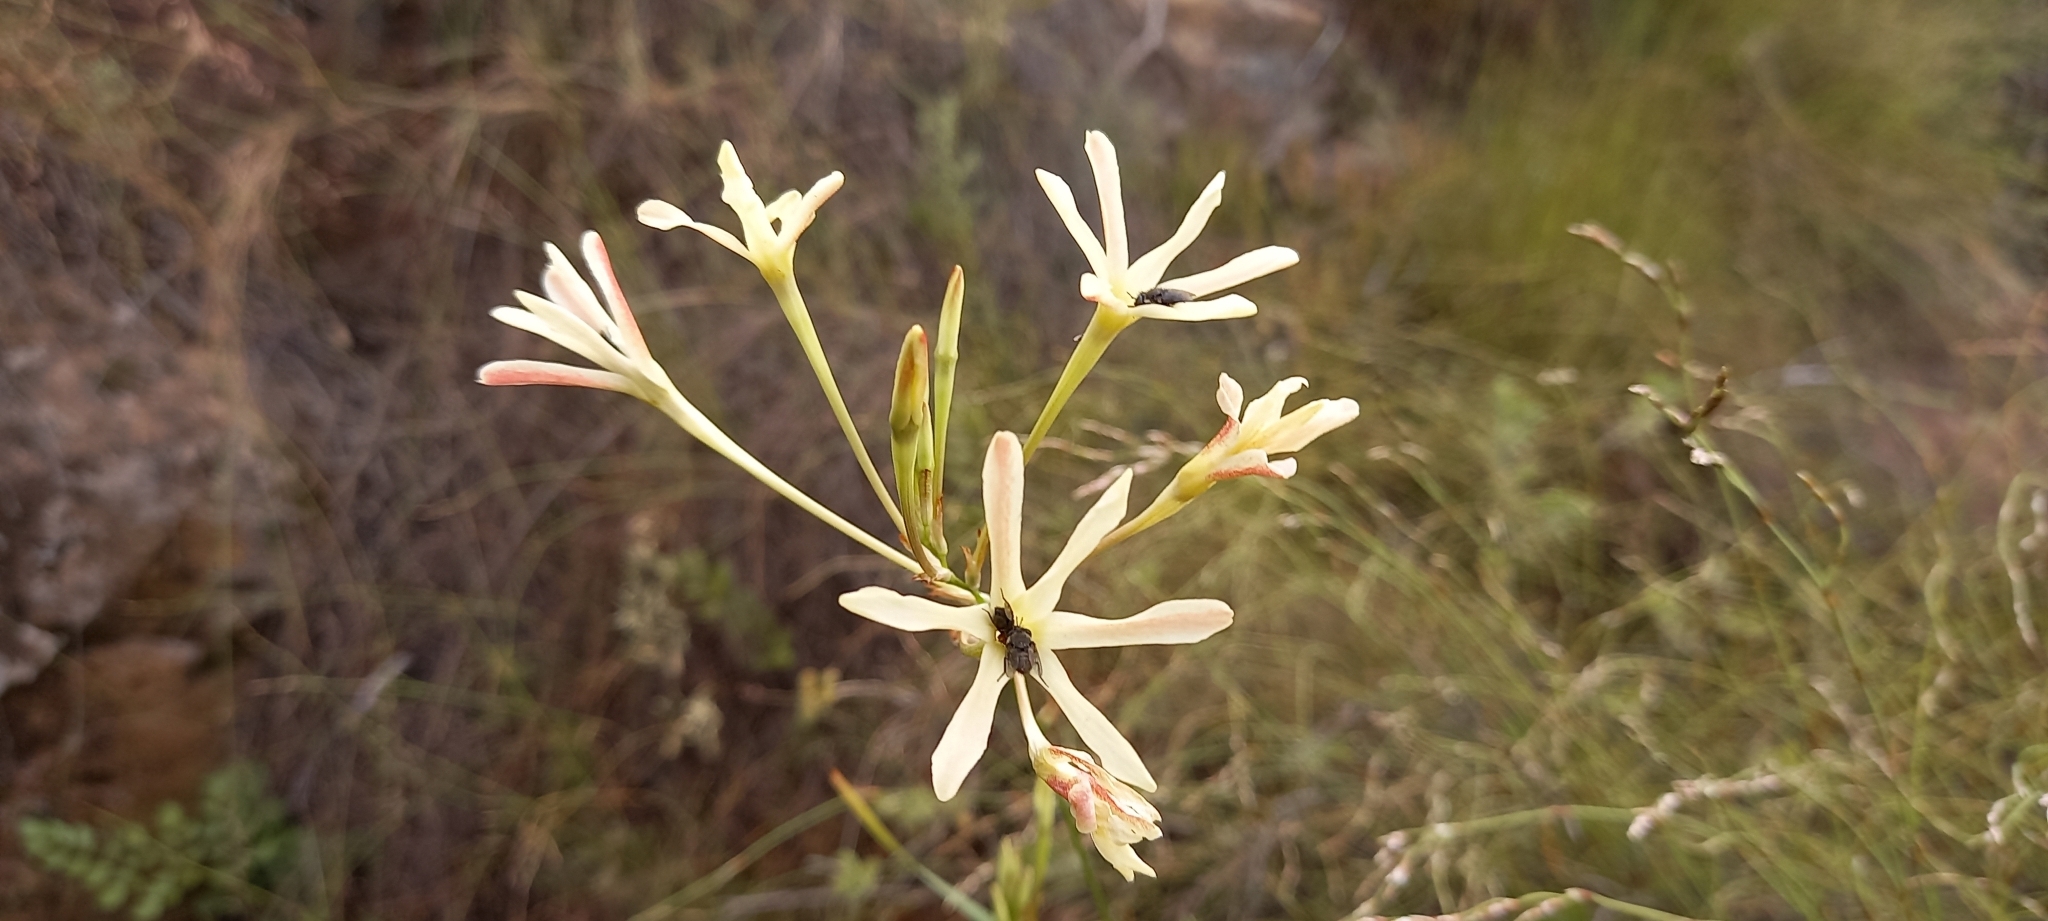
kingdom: Plantae
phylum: Tracheophyta
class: Liliopsida
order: Asparagales
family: Iridaceae
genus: Ixia
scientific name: Ixia paniculata
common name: Tubular corn-lily
